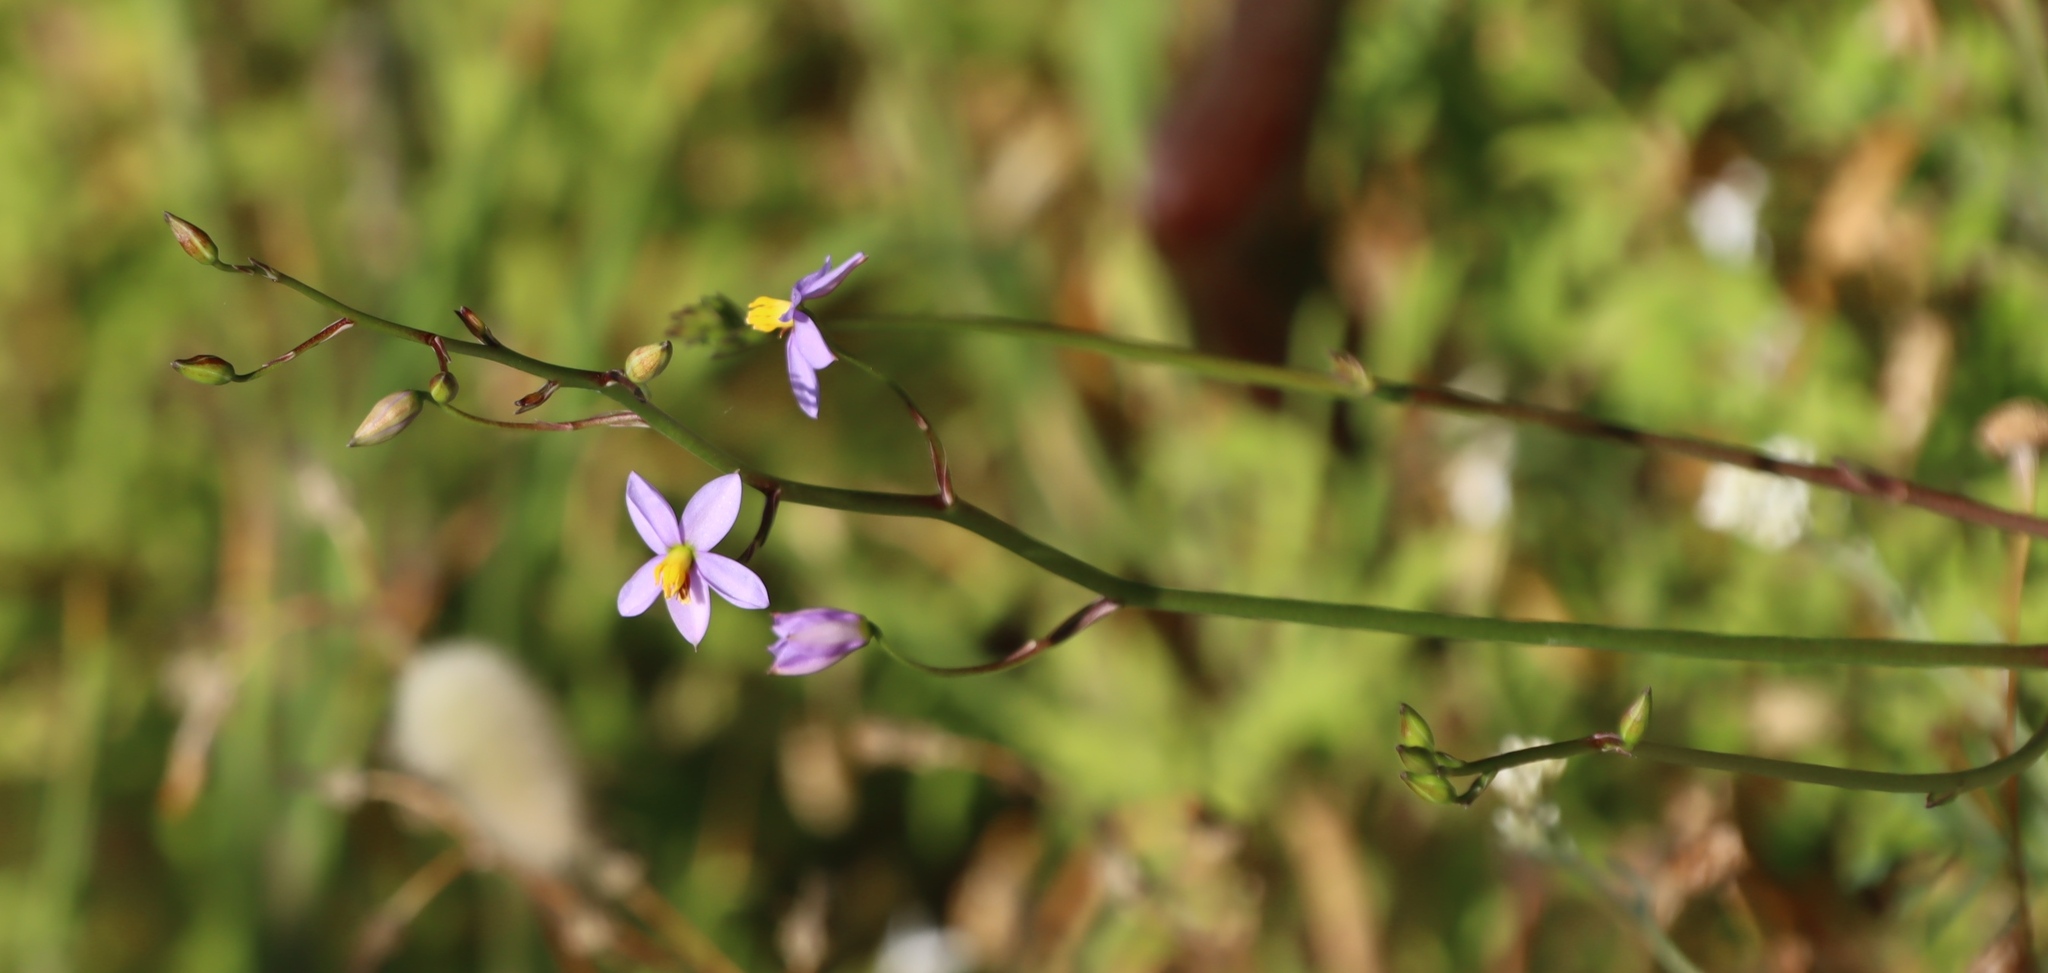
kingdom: Plantae
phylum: Tracheophyta
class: Liliopsida
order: Asparagales
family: Tecophilaeaceae
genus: Cyanella
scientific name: Cyanella hyacinthoides
